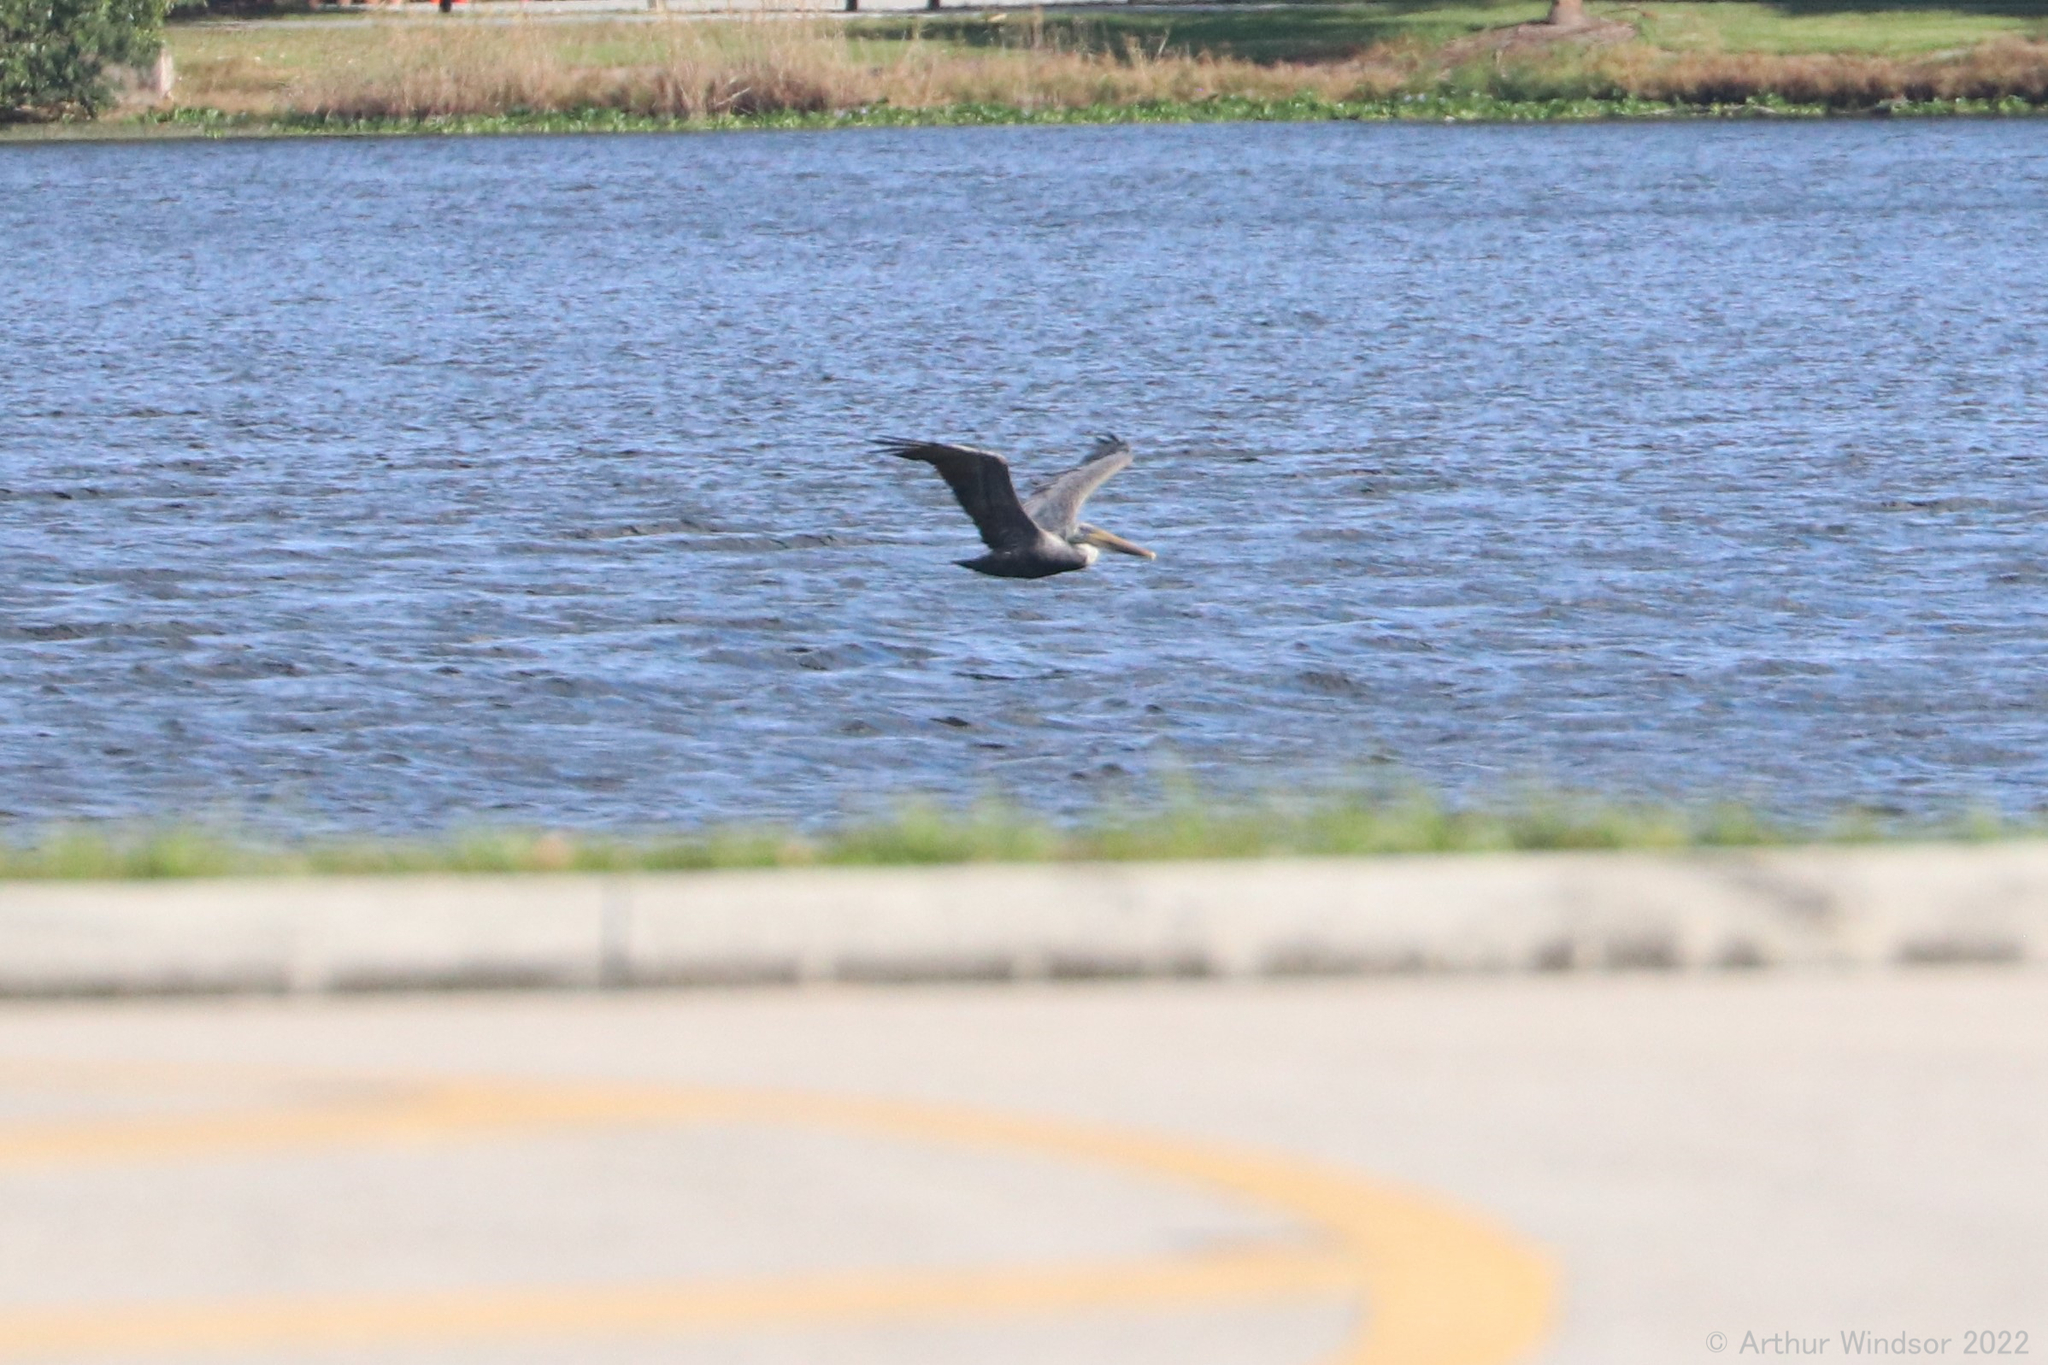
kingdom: Animalia
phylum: Chordata
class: Aves
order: Pelecaniformes
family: Pelecanidae
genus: Pelecanus
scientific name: Pelecanus occidentalis
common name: Brown pelican
